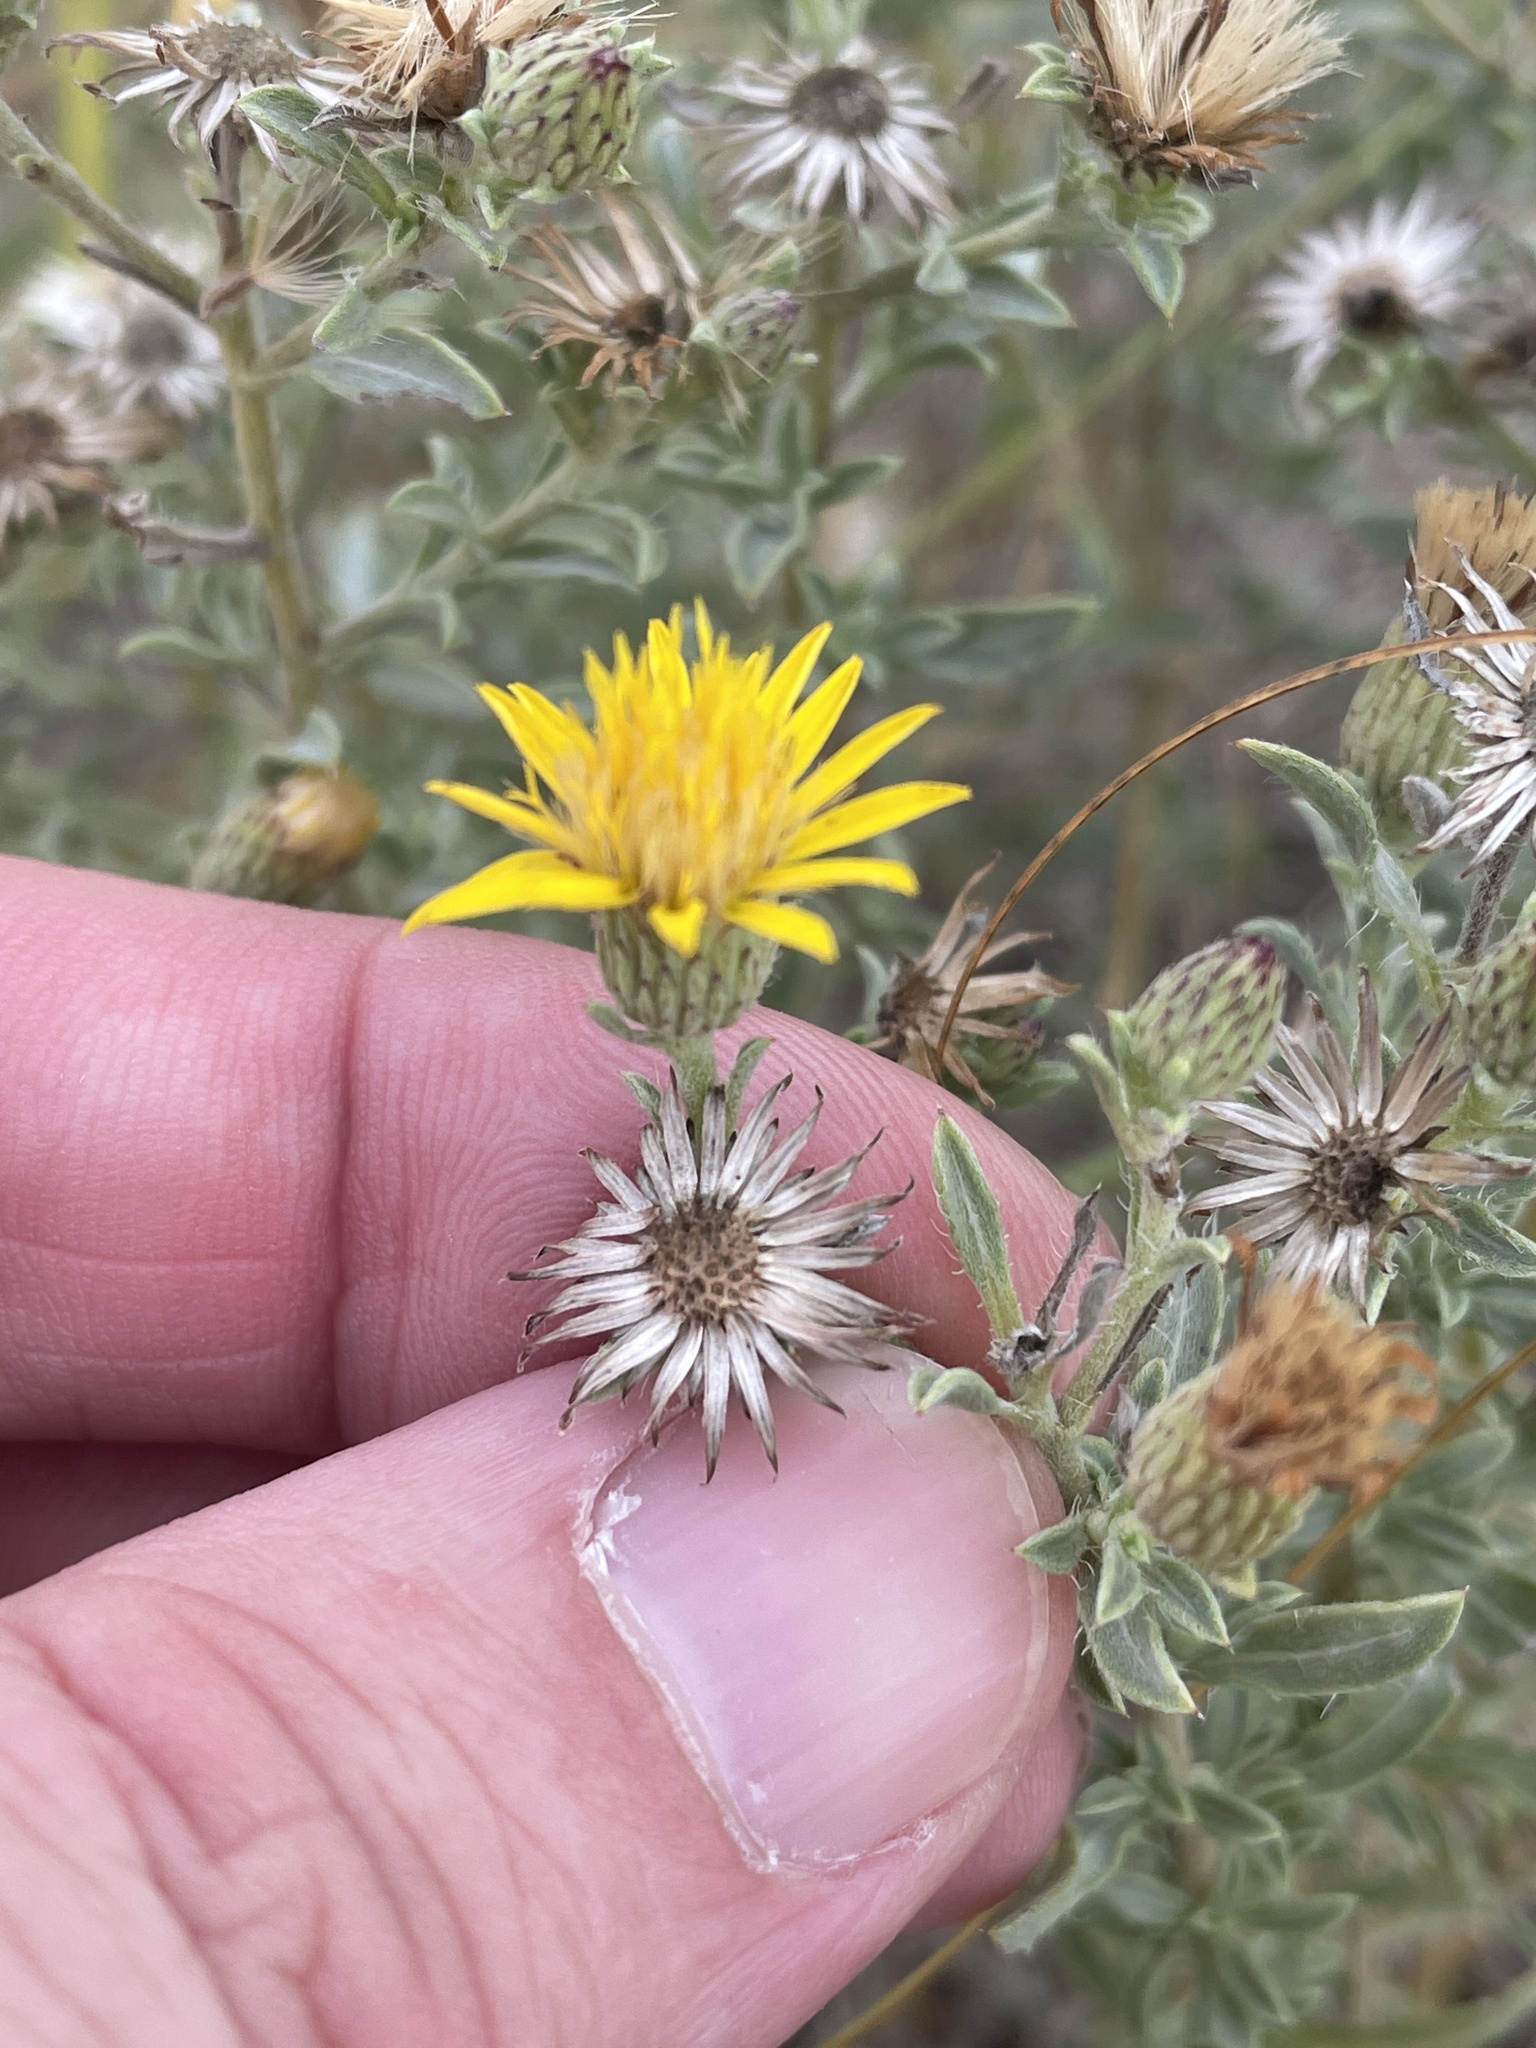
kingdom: Plantae
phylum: Tracheophyta
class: Magnoliopsida
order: Asterales
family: Asteraceae
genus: Heterotheca
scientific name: Heterotheca canescens
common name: Hoary golden-aster
